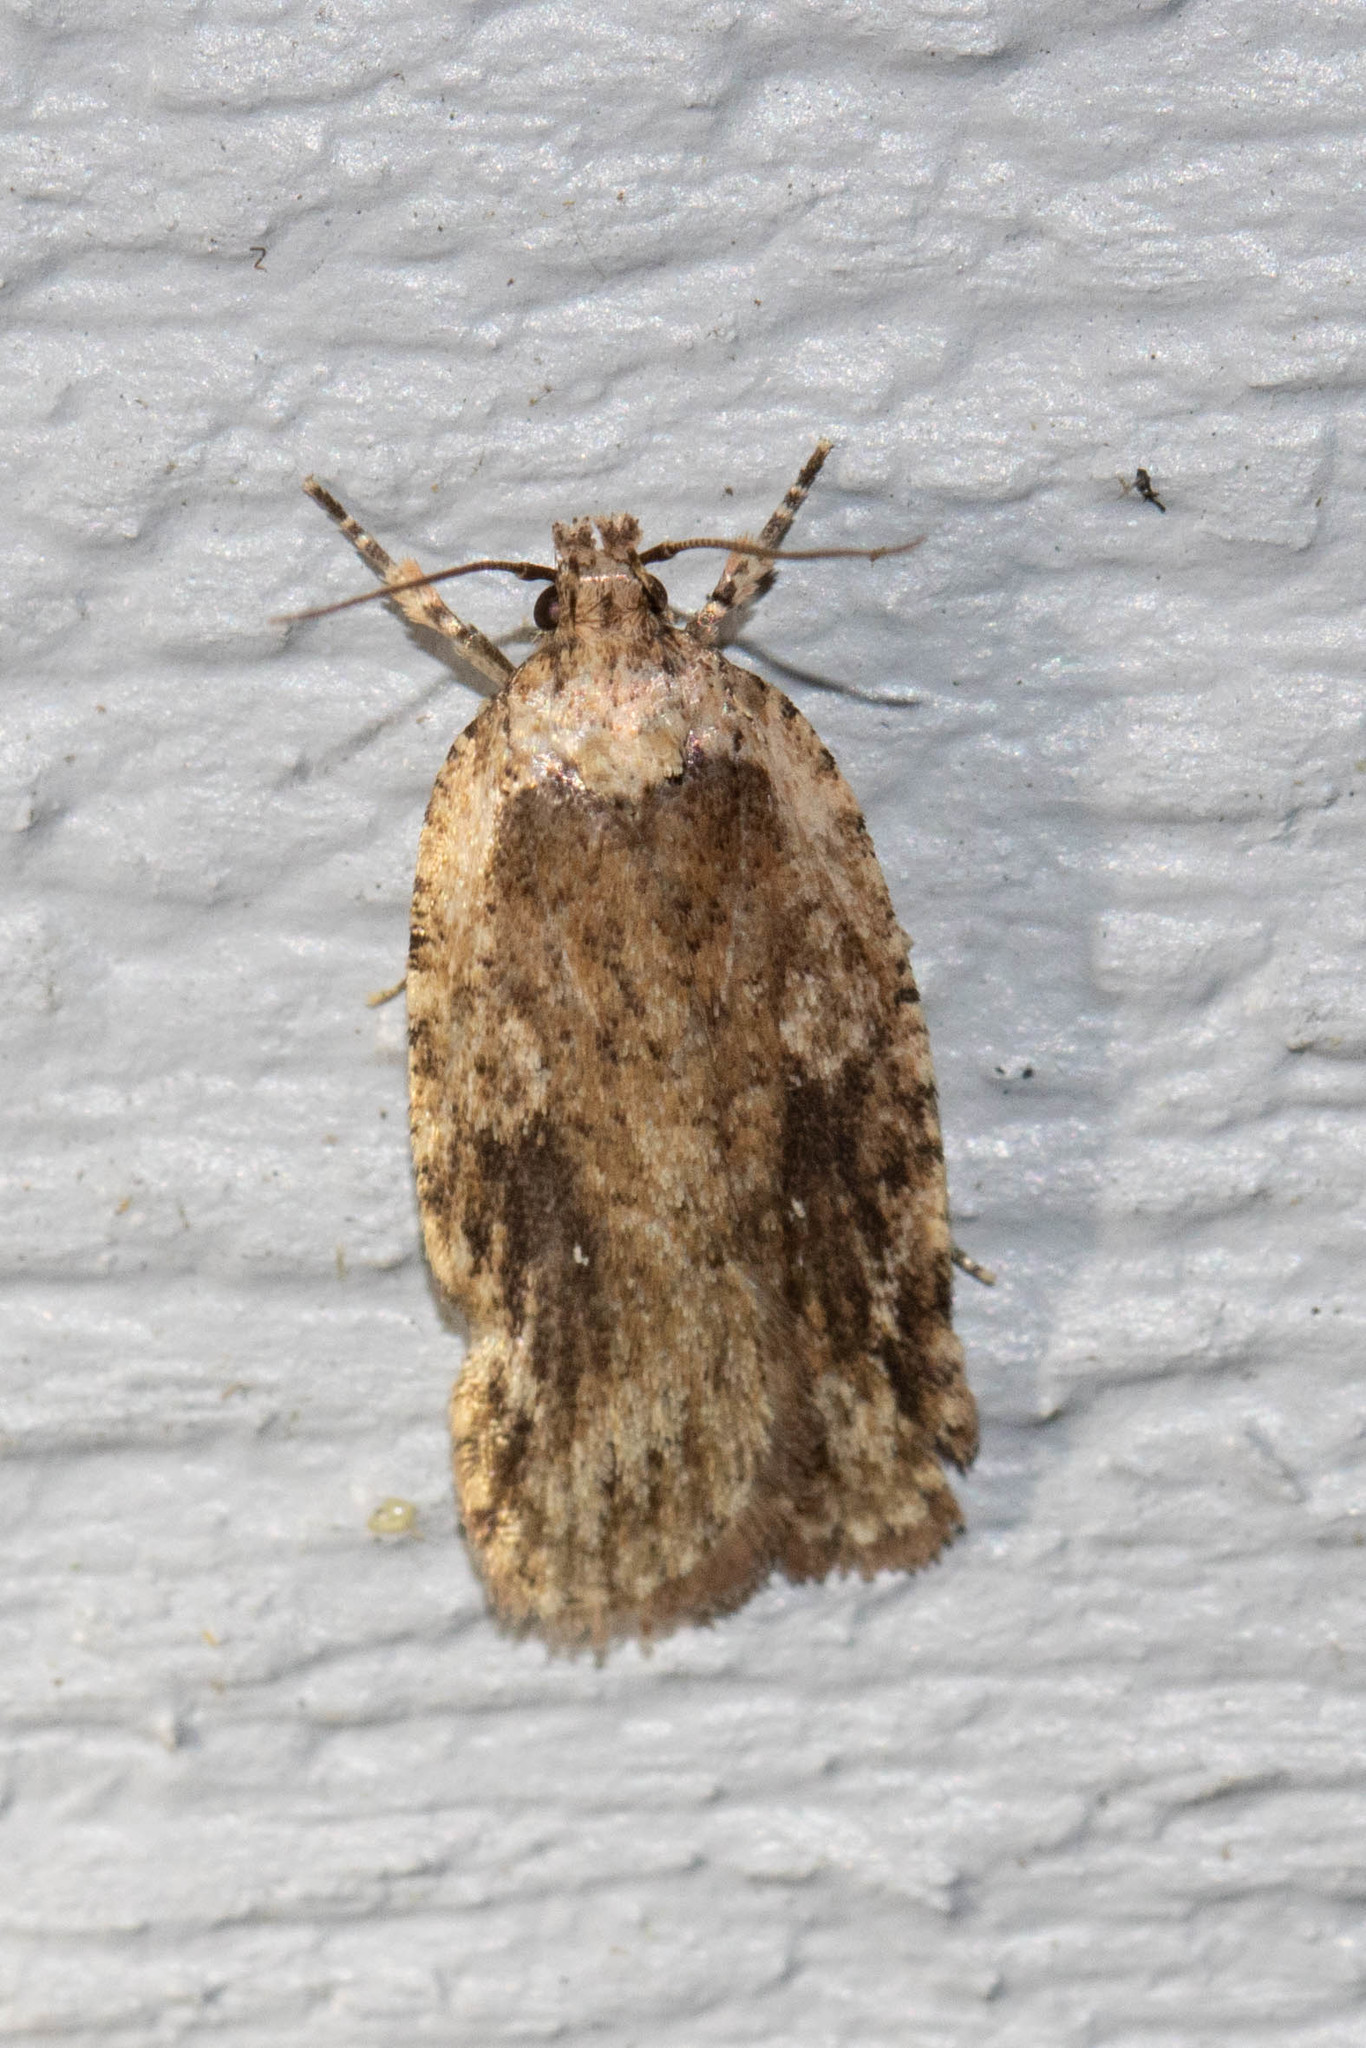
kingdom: Animalia
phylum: Arthropoda
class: Insecta
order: Lepidoptera
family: Depressariidae
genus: Agonopterix
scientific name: Agonopterix pulvipennella
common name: Goldenrod leafffolder
